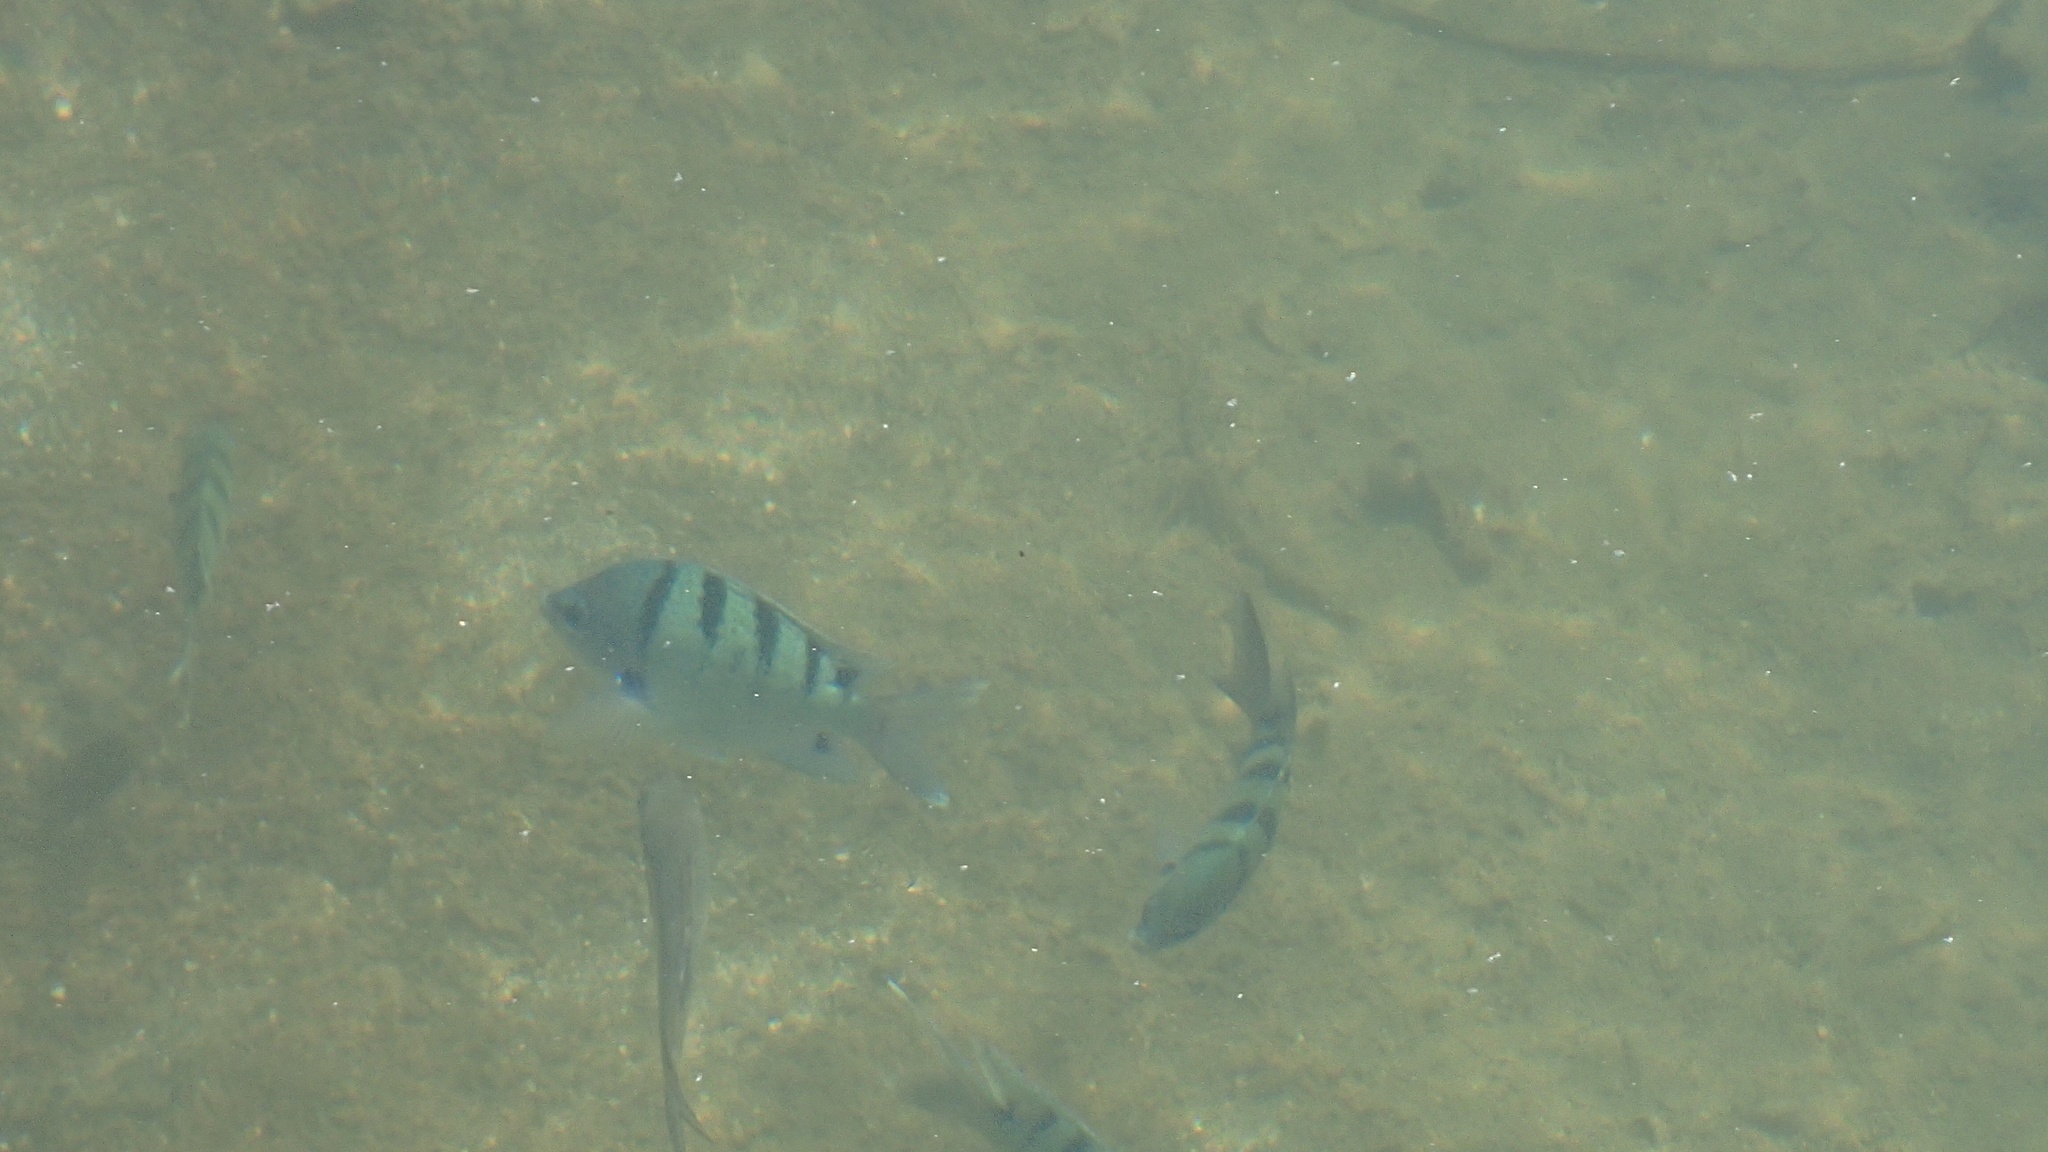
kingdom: Animalia
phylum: Chordata
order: Perciformes
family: Pomacentridae
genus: Abudefduf
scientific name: Abudefduf abdominalis
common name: Green damselfish
